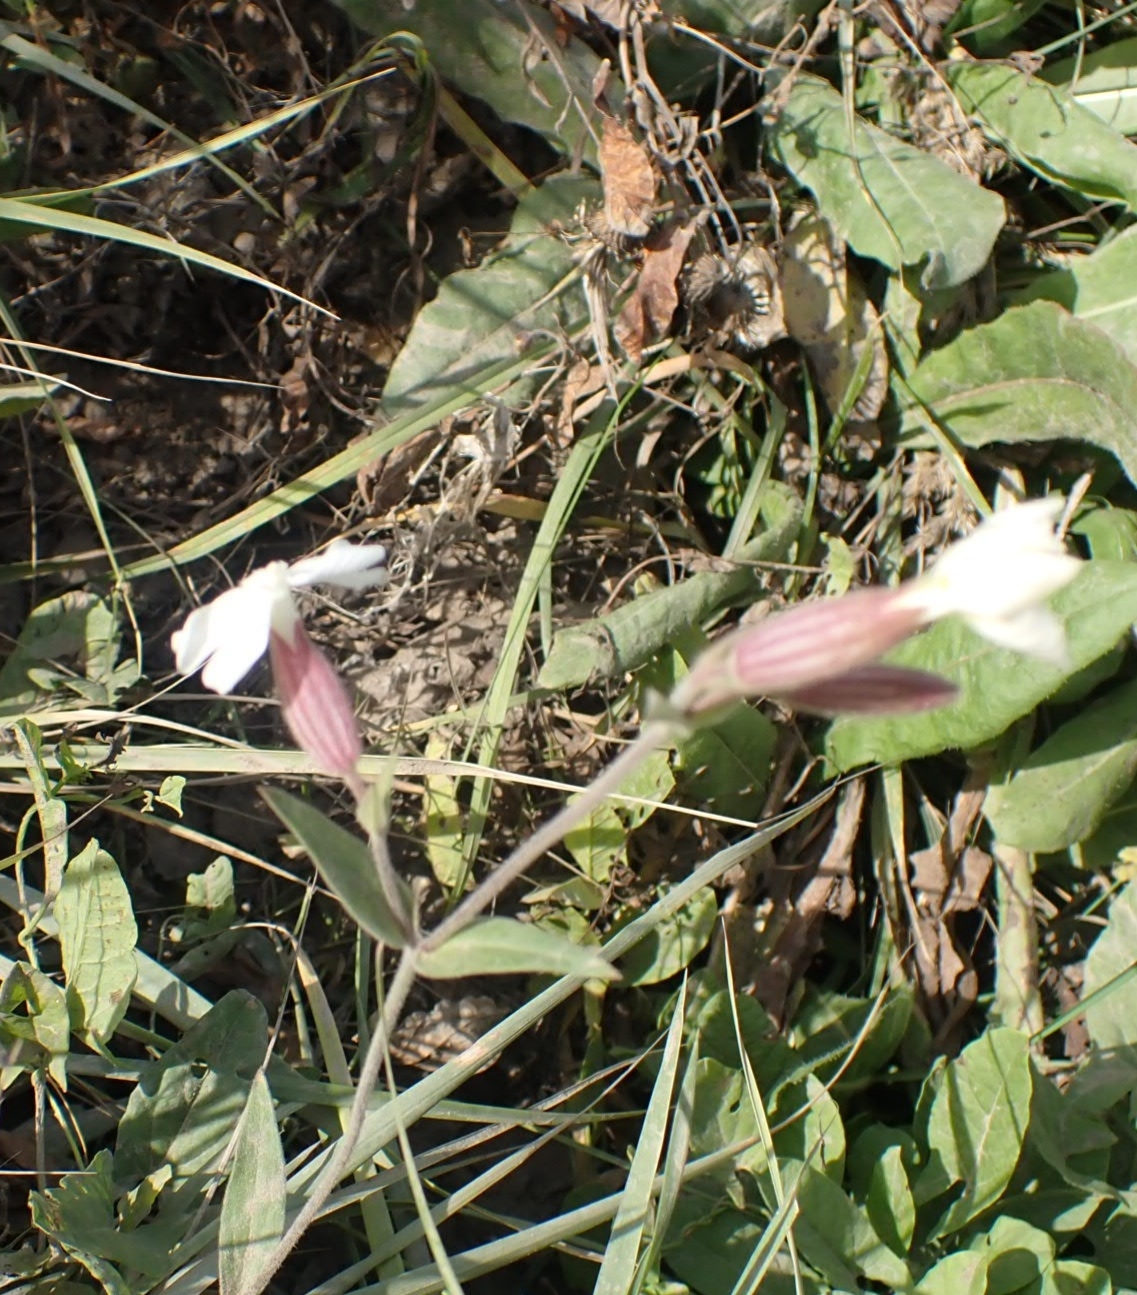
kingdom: Plantae
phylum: Tracheophyta
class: Magnoliopsida
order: Caryophyllales
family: Caryophyllaceae
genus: Silene
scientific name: Silene latifolia
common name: White campion
